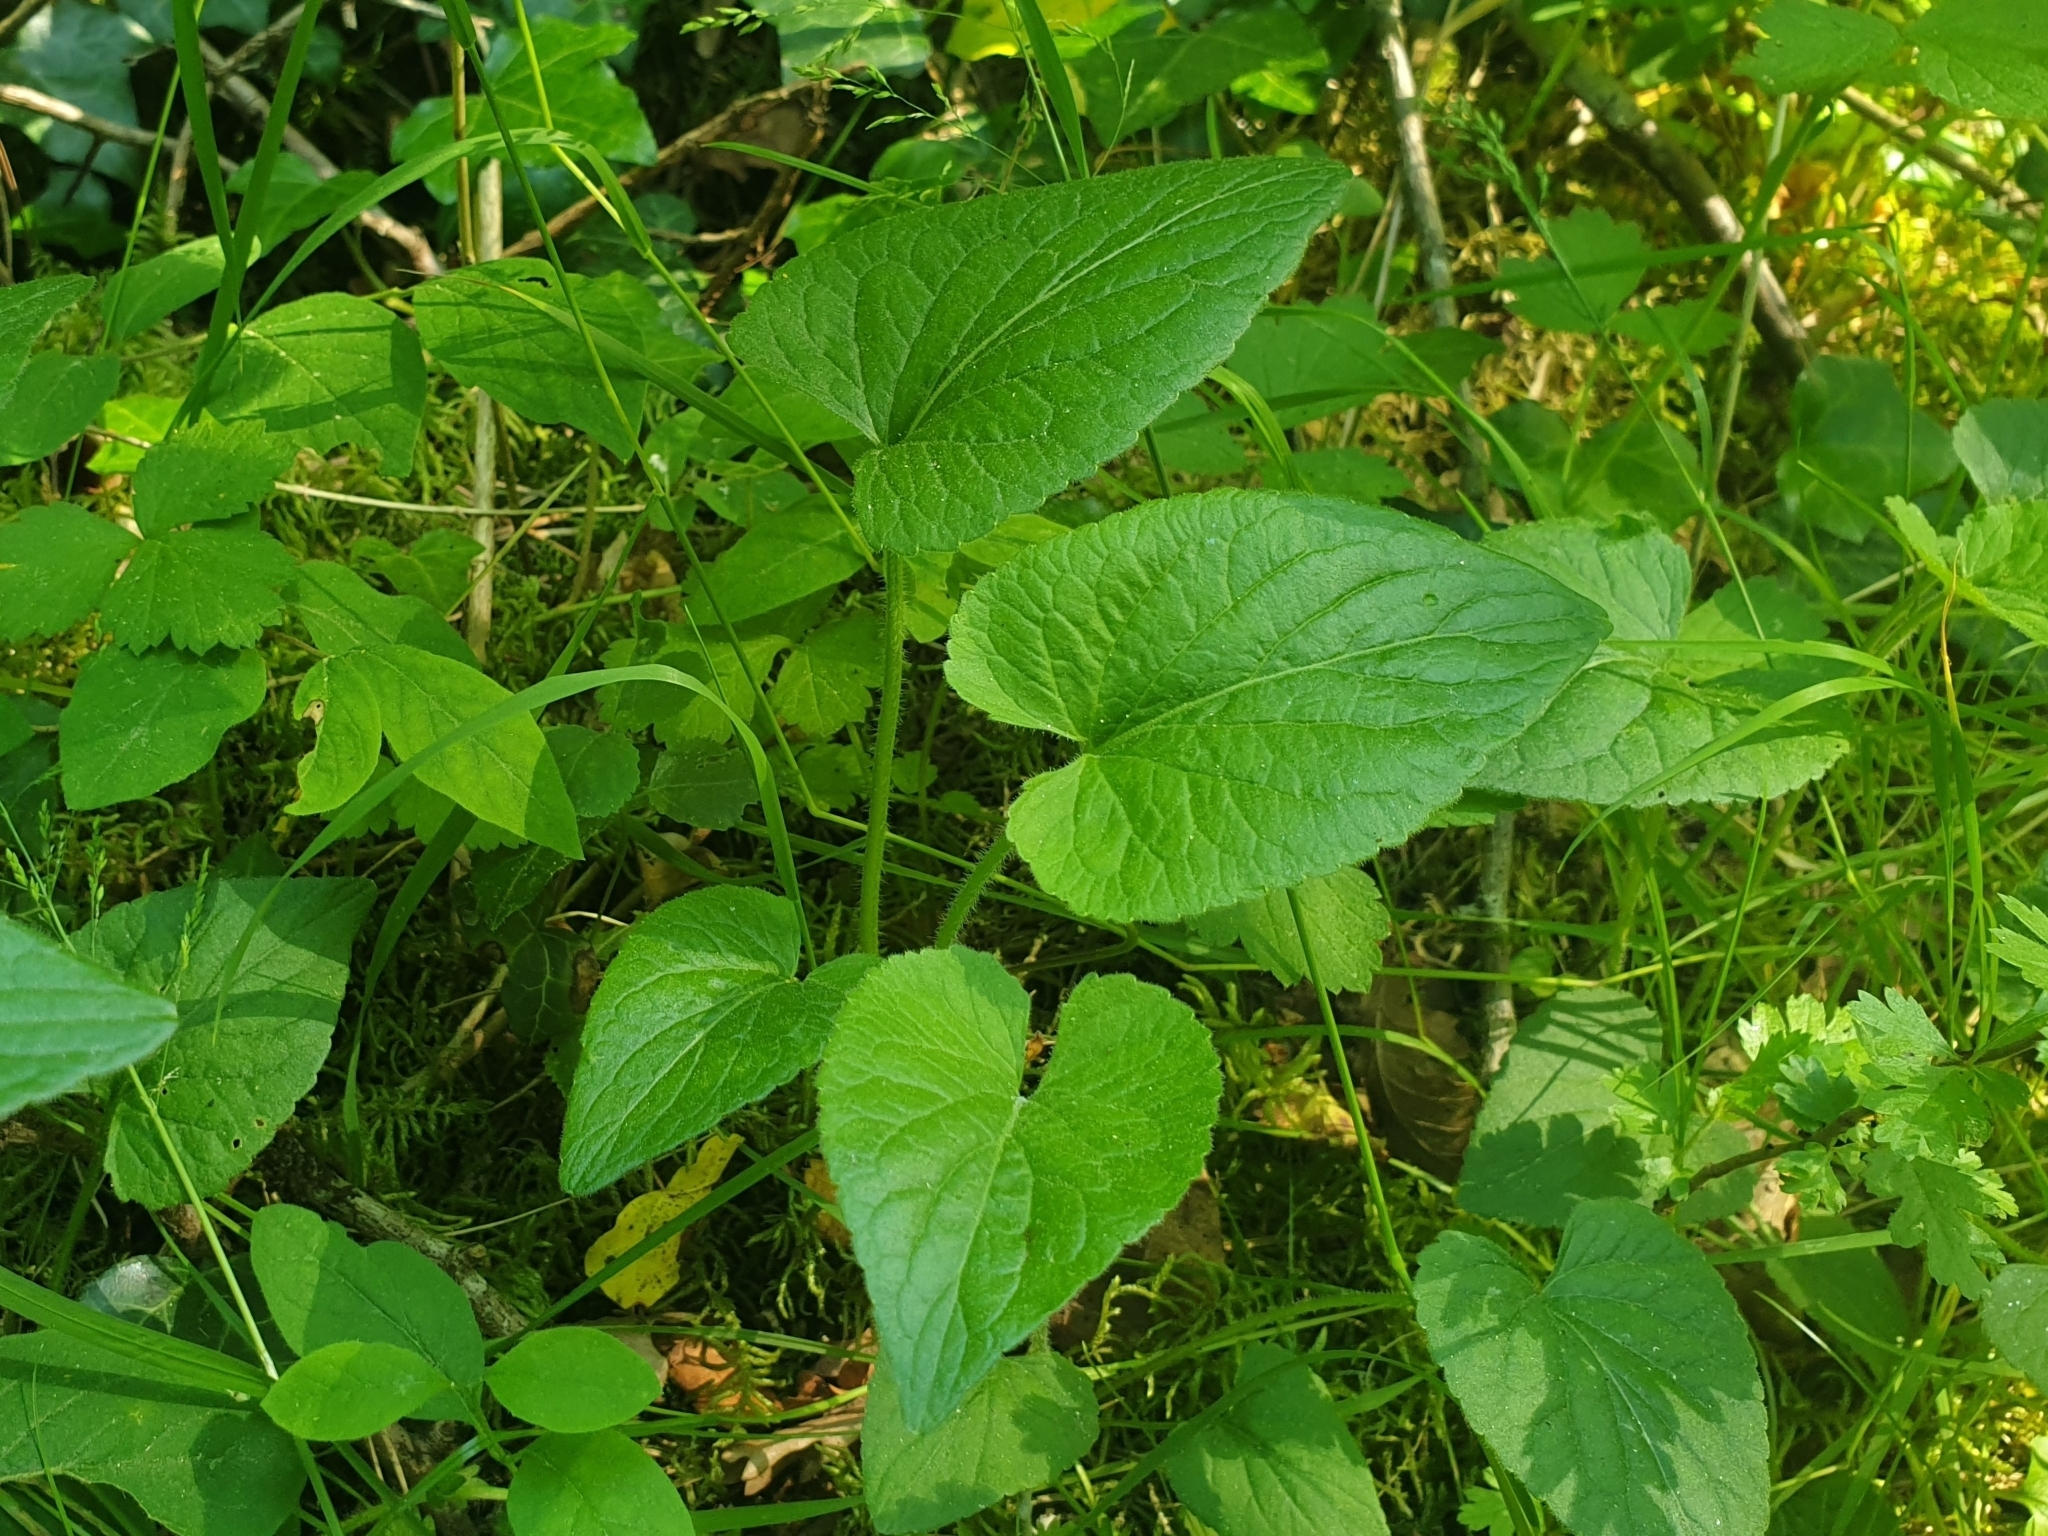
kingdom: Plantae
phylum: Tracheophyta
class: Magnoliopsida
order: Malpighiales
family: Violaceae
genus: Viola
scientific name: Viola hirta
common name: Hairy violet
